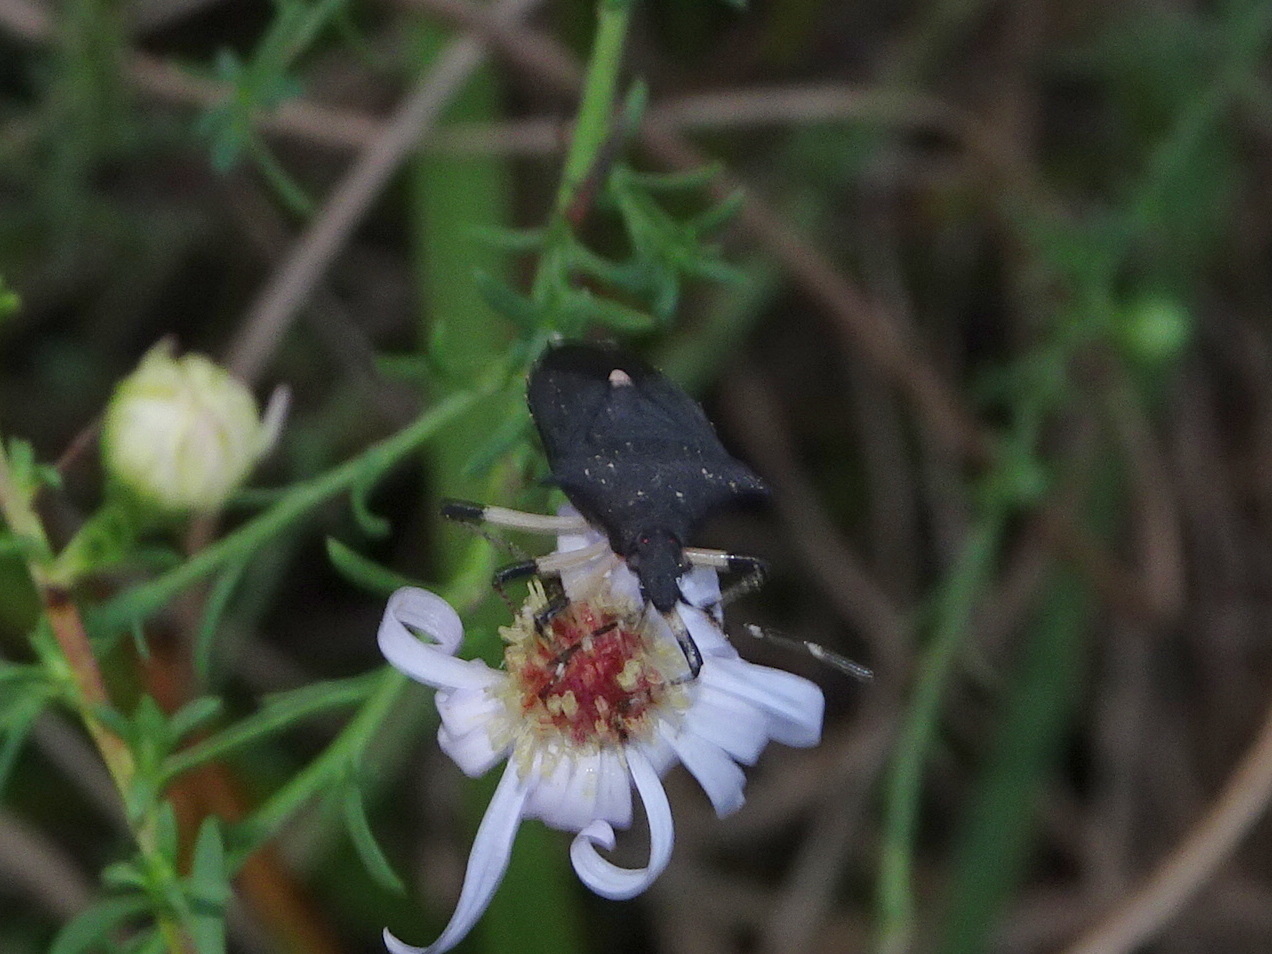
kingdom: Animalia
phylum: Arthropoda
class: Insecta
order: Hemiptera
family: Pentatomidae
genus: Proxys
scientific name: Proxys punctulatus
